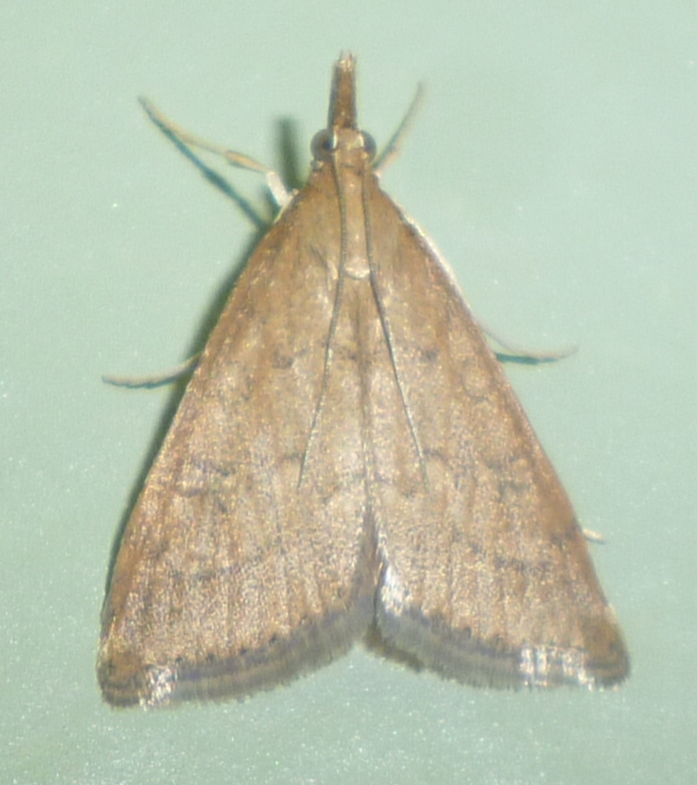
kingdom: Animalia
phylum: Arthropoda
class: Insecta
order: Lepidoptera
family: Crambidae
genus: Udea
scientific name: Udea rubigalis
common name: Celery leaftier moth
